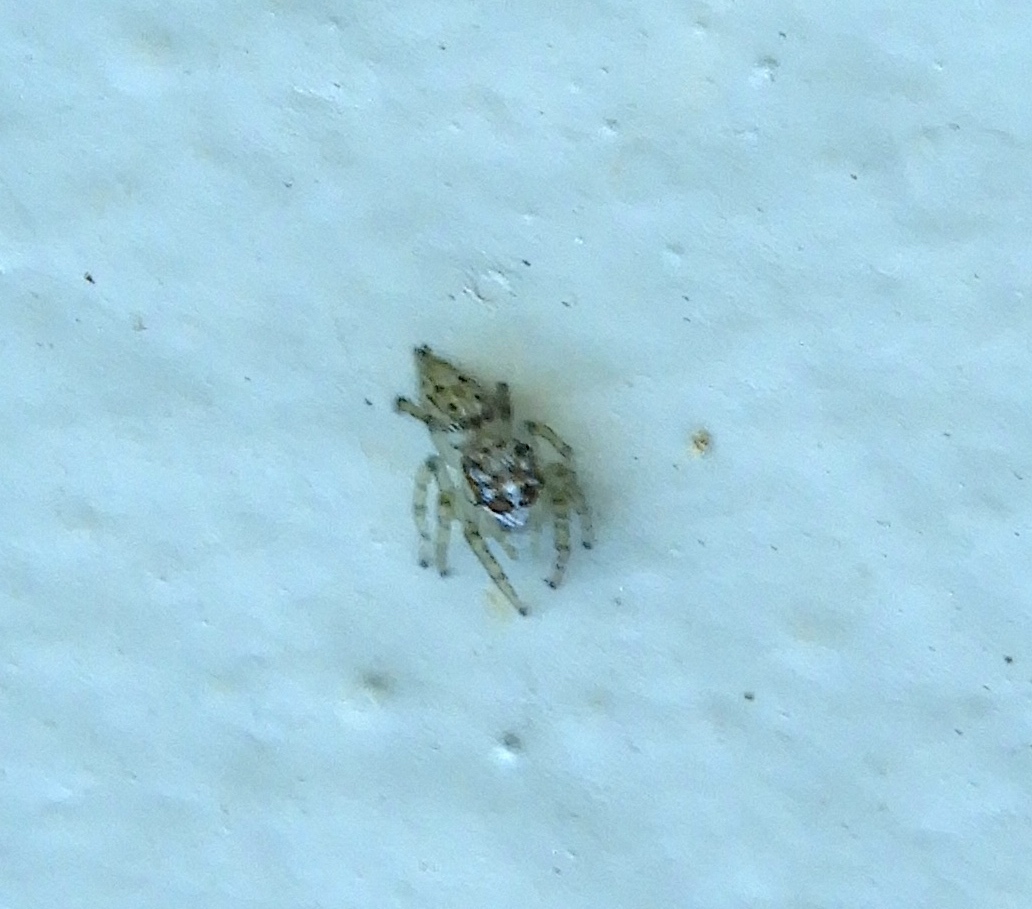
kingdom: Animalia
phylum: Arthropoda
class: Arachnida
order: Araneae
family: Salticidae
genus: Colonus
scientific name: Colonus
